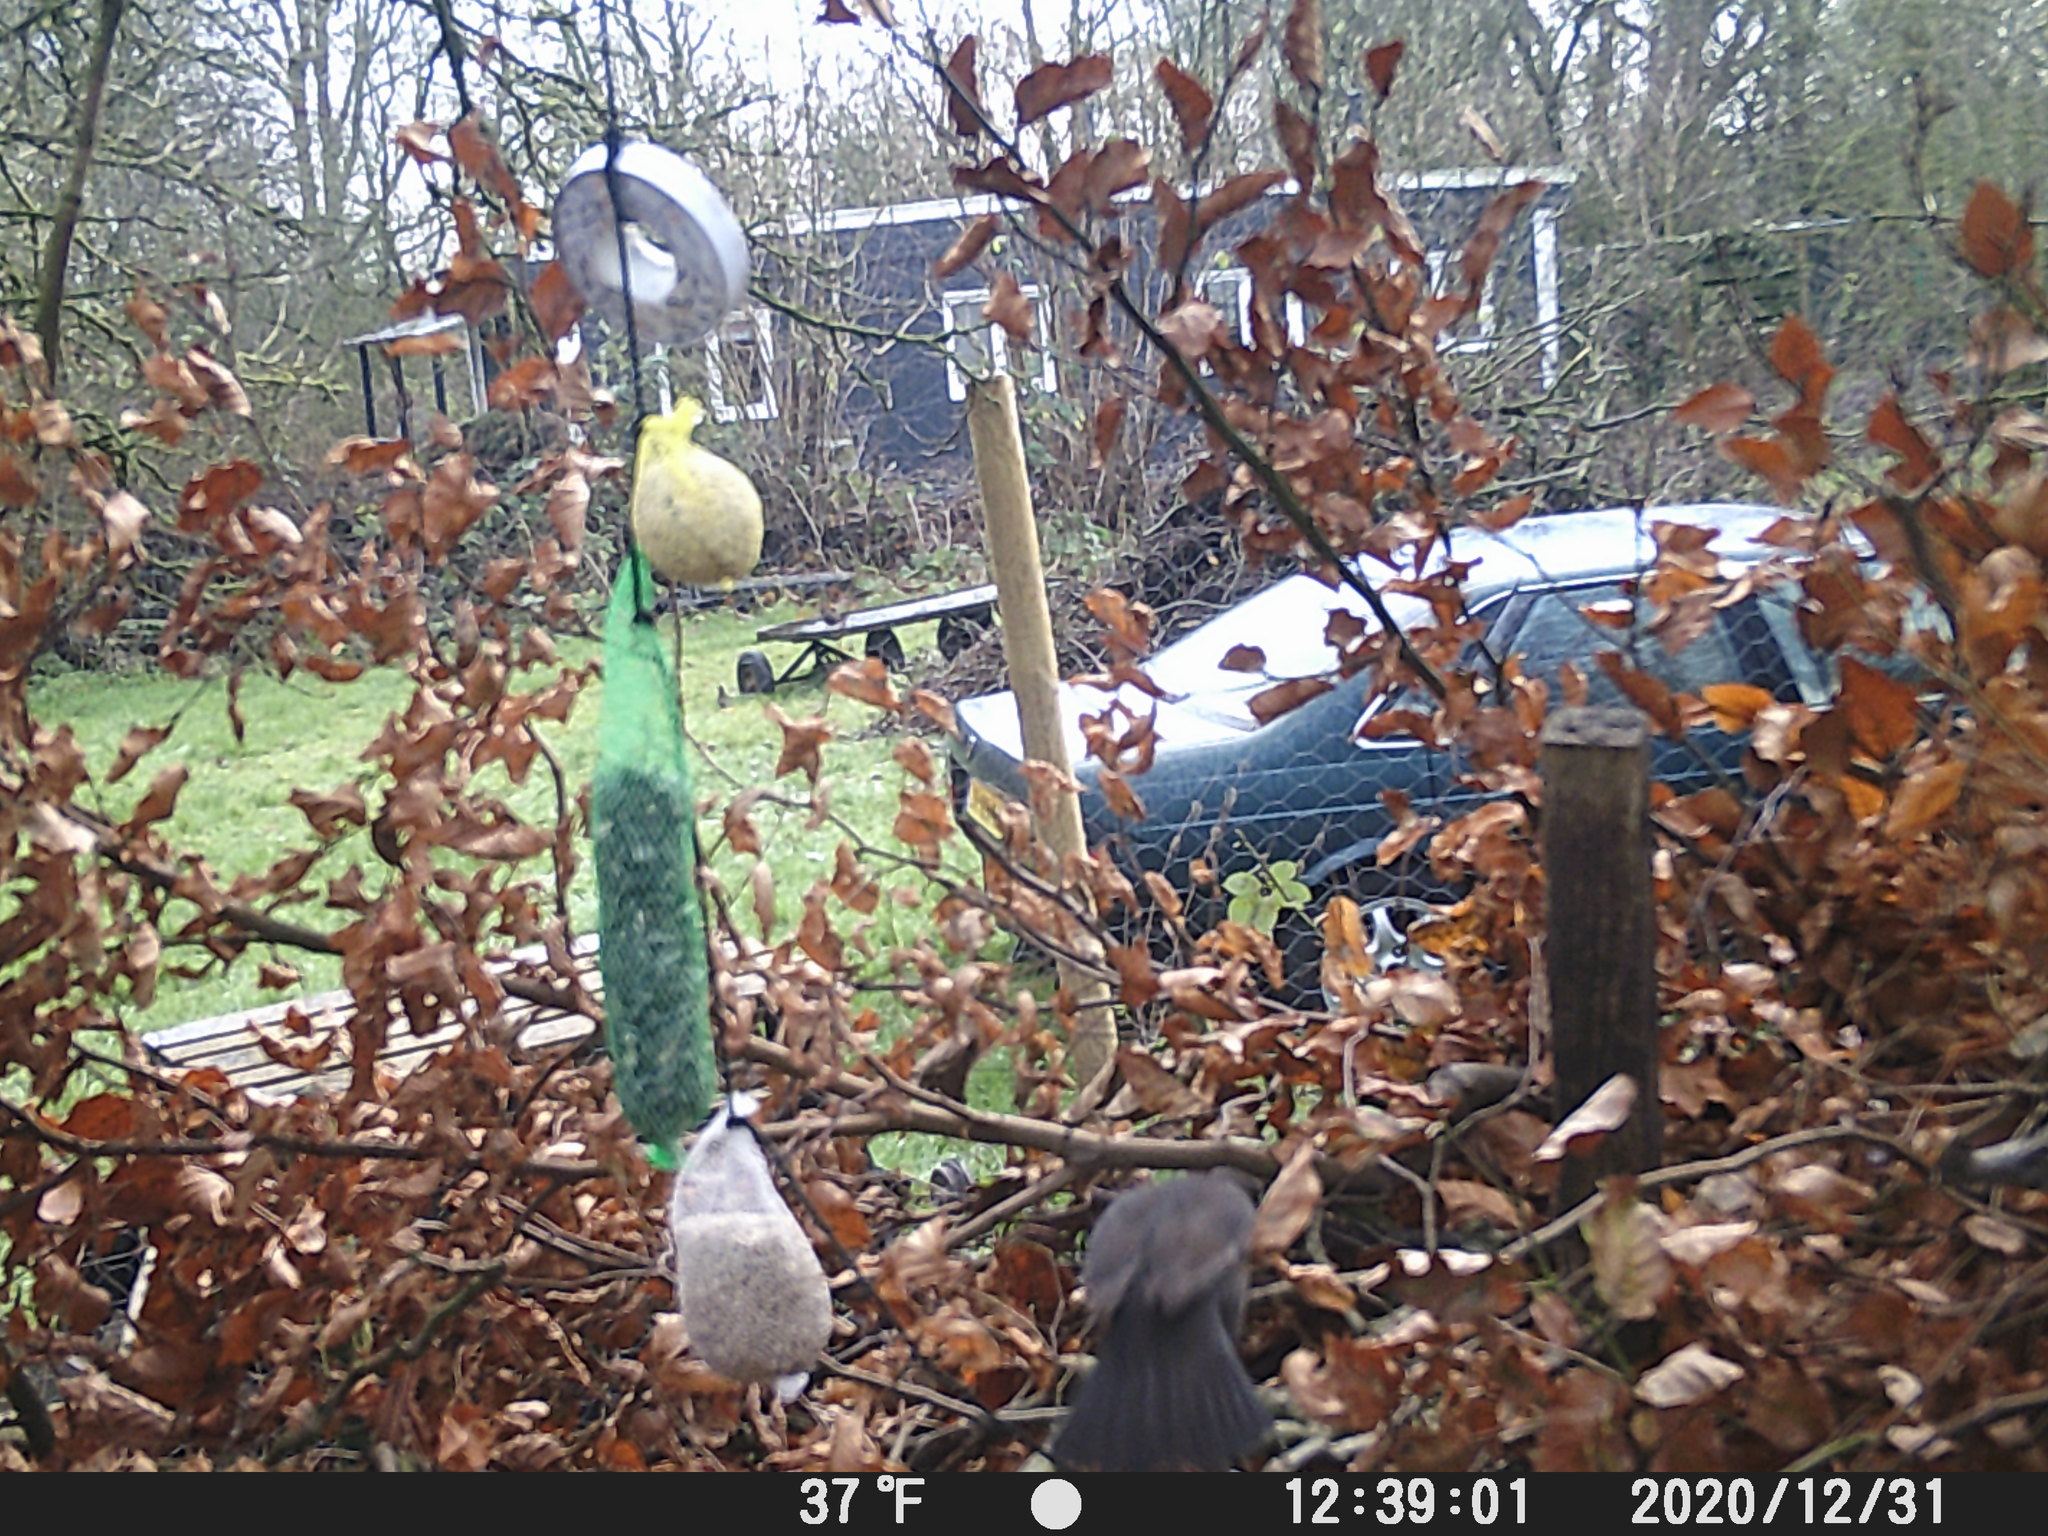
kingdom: Animalia
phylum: Chordata
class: Aves
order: Passeriformes
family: Turdidae
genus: Turdus
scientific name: Turdus merula
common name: Common blackbird
